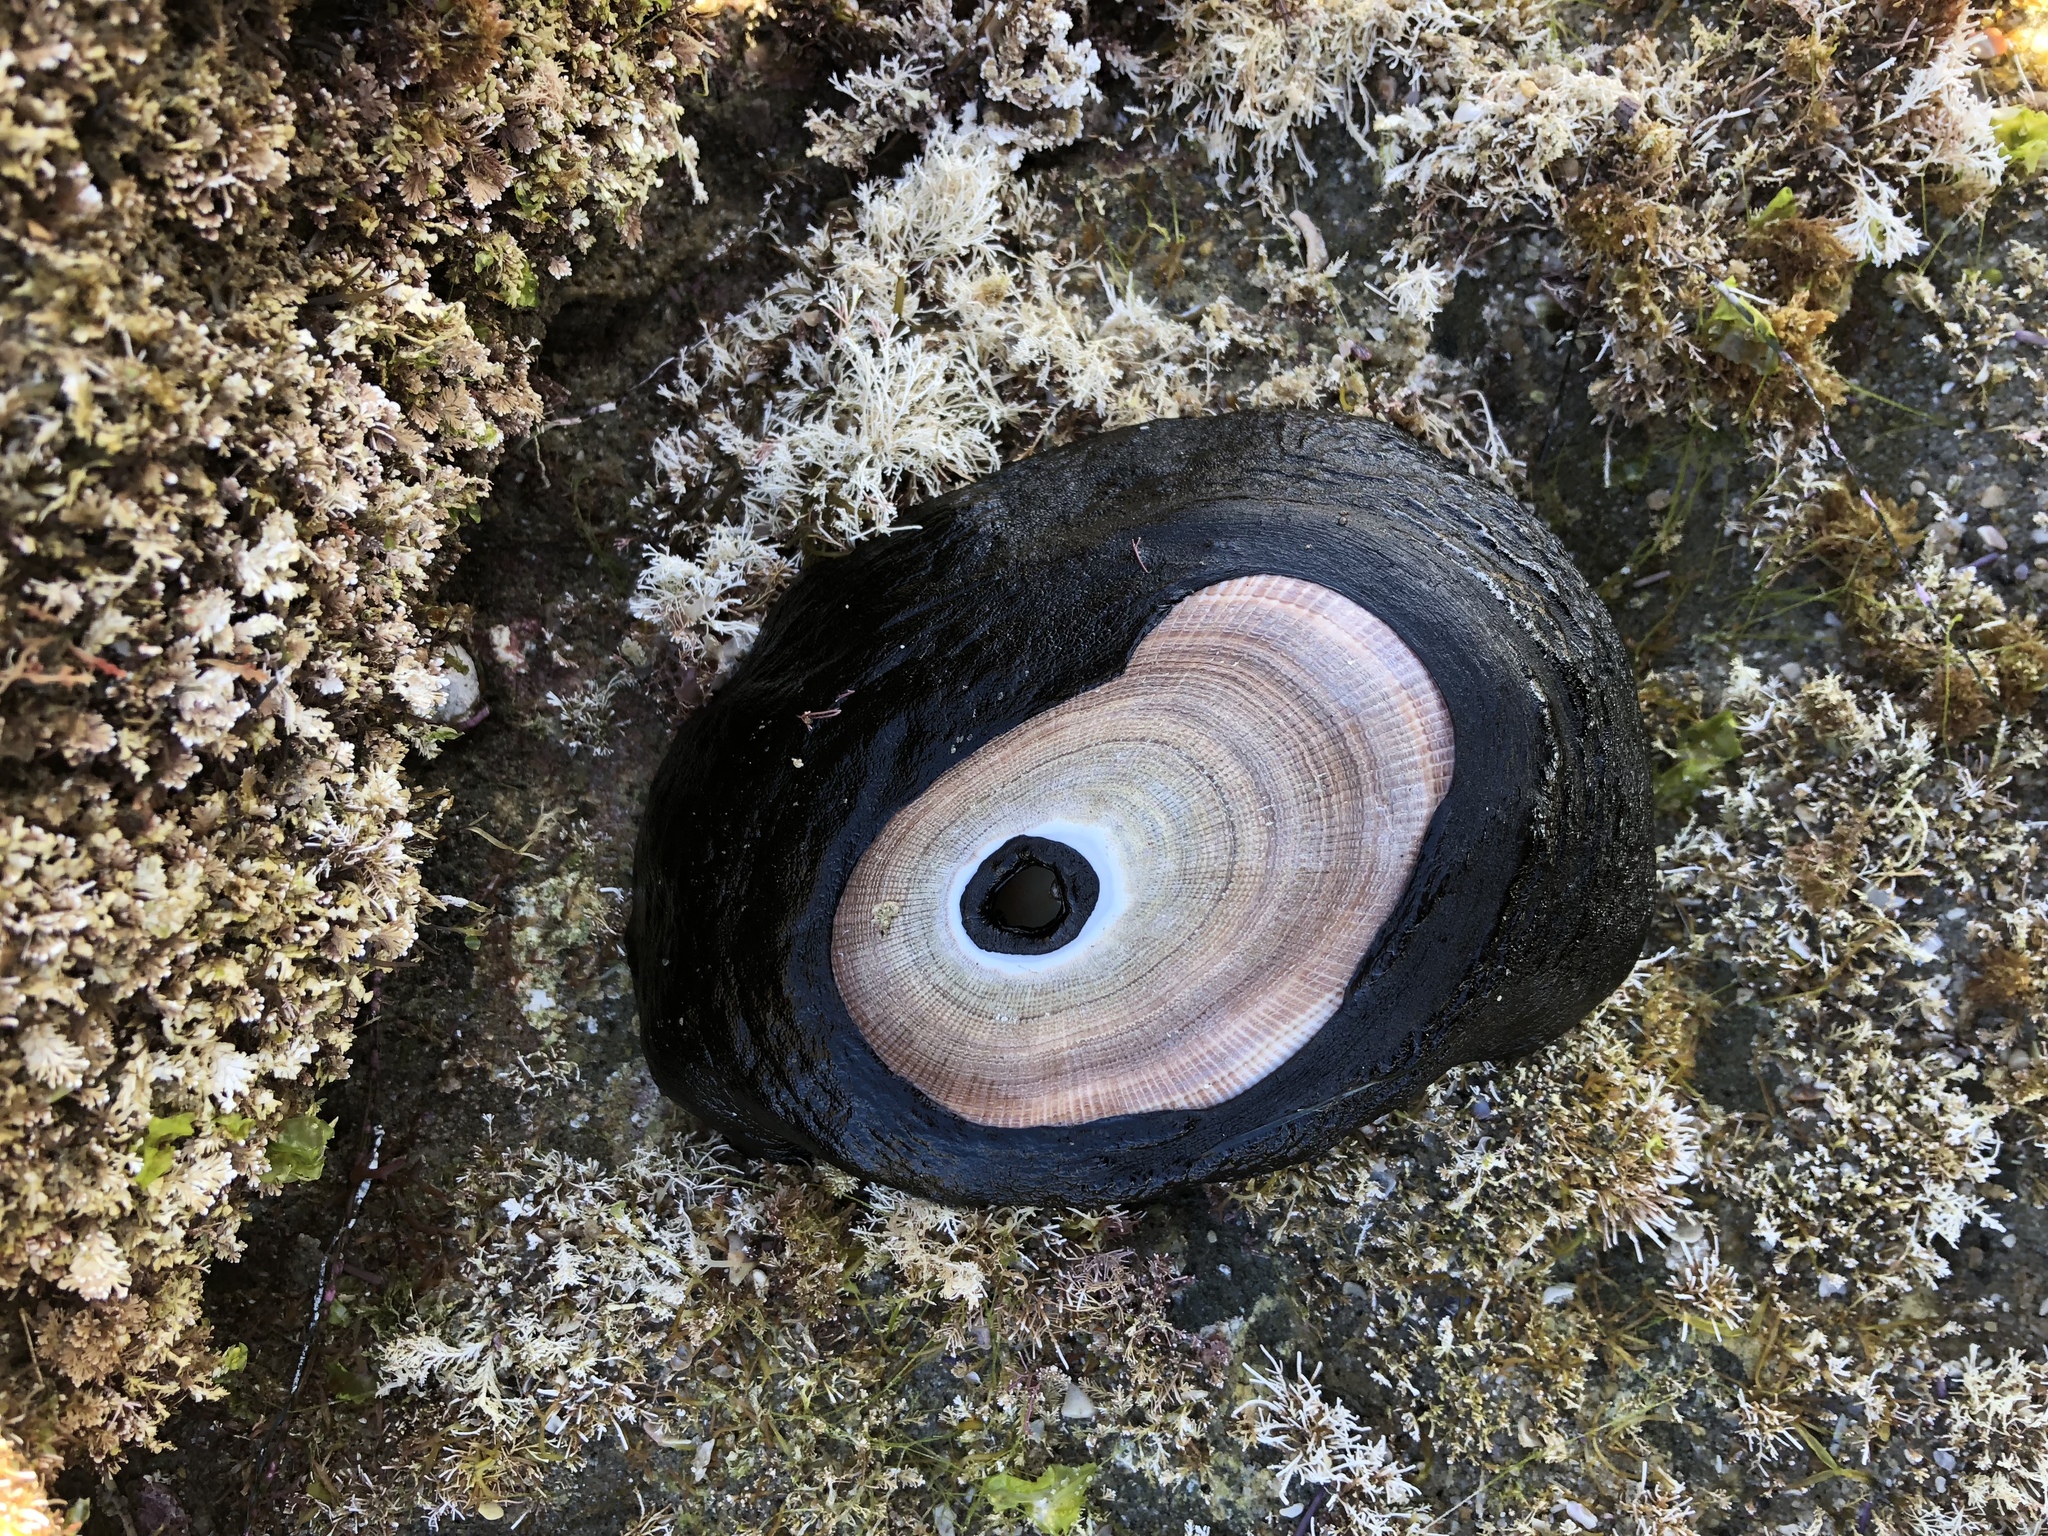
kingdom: Animalia
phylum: Mollusca
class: Gastropoda
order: Lepetellida
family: Fissurellidae
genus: Megathura
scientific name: Megathura crenulata
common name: Giant keyhole limpet
